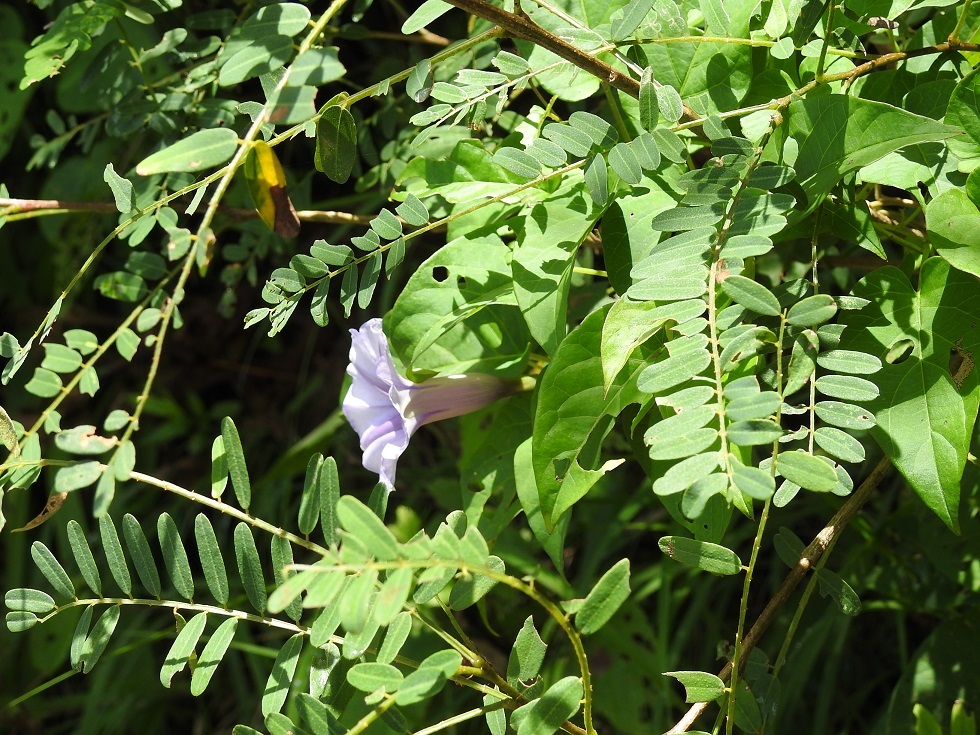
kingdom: Plantae
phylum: Tracheophyta
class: Magnoliopsida
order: Solanales
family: Convolvulaceae
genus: Ipomoea
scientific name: Ipomoea lindenii
